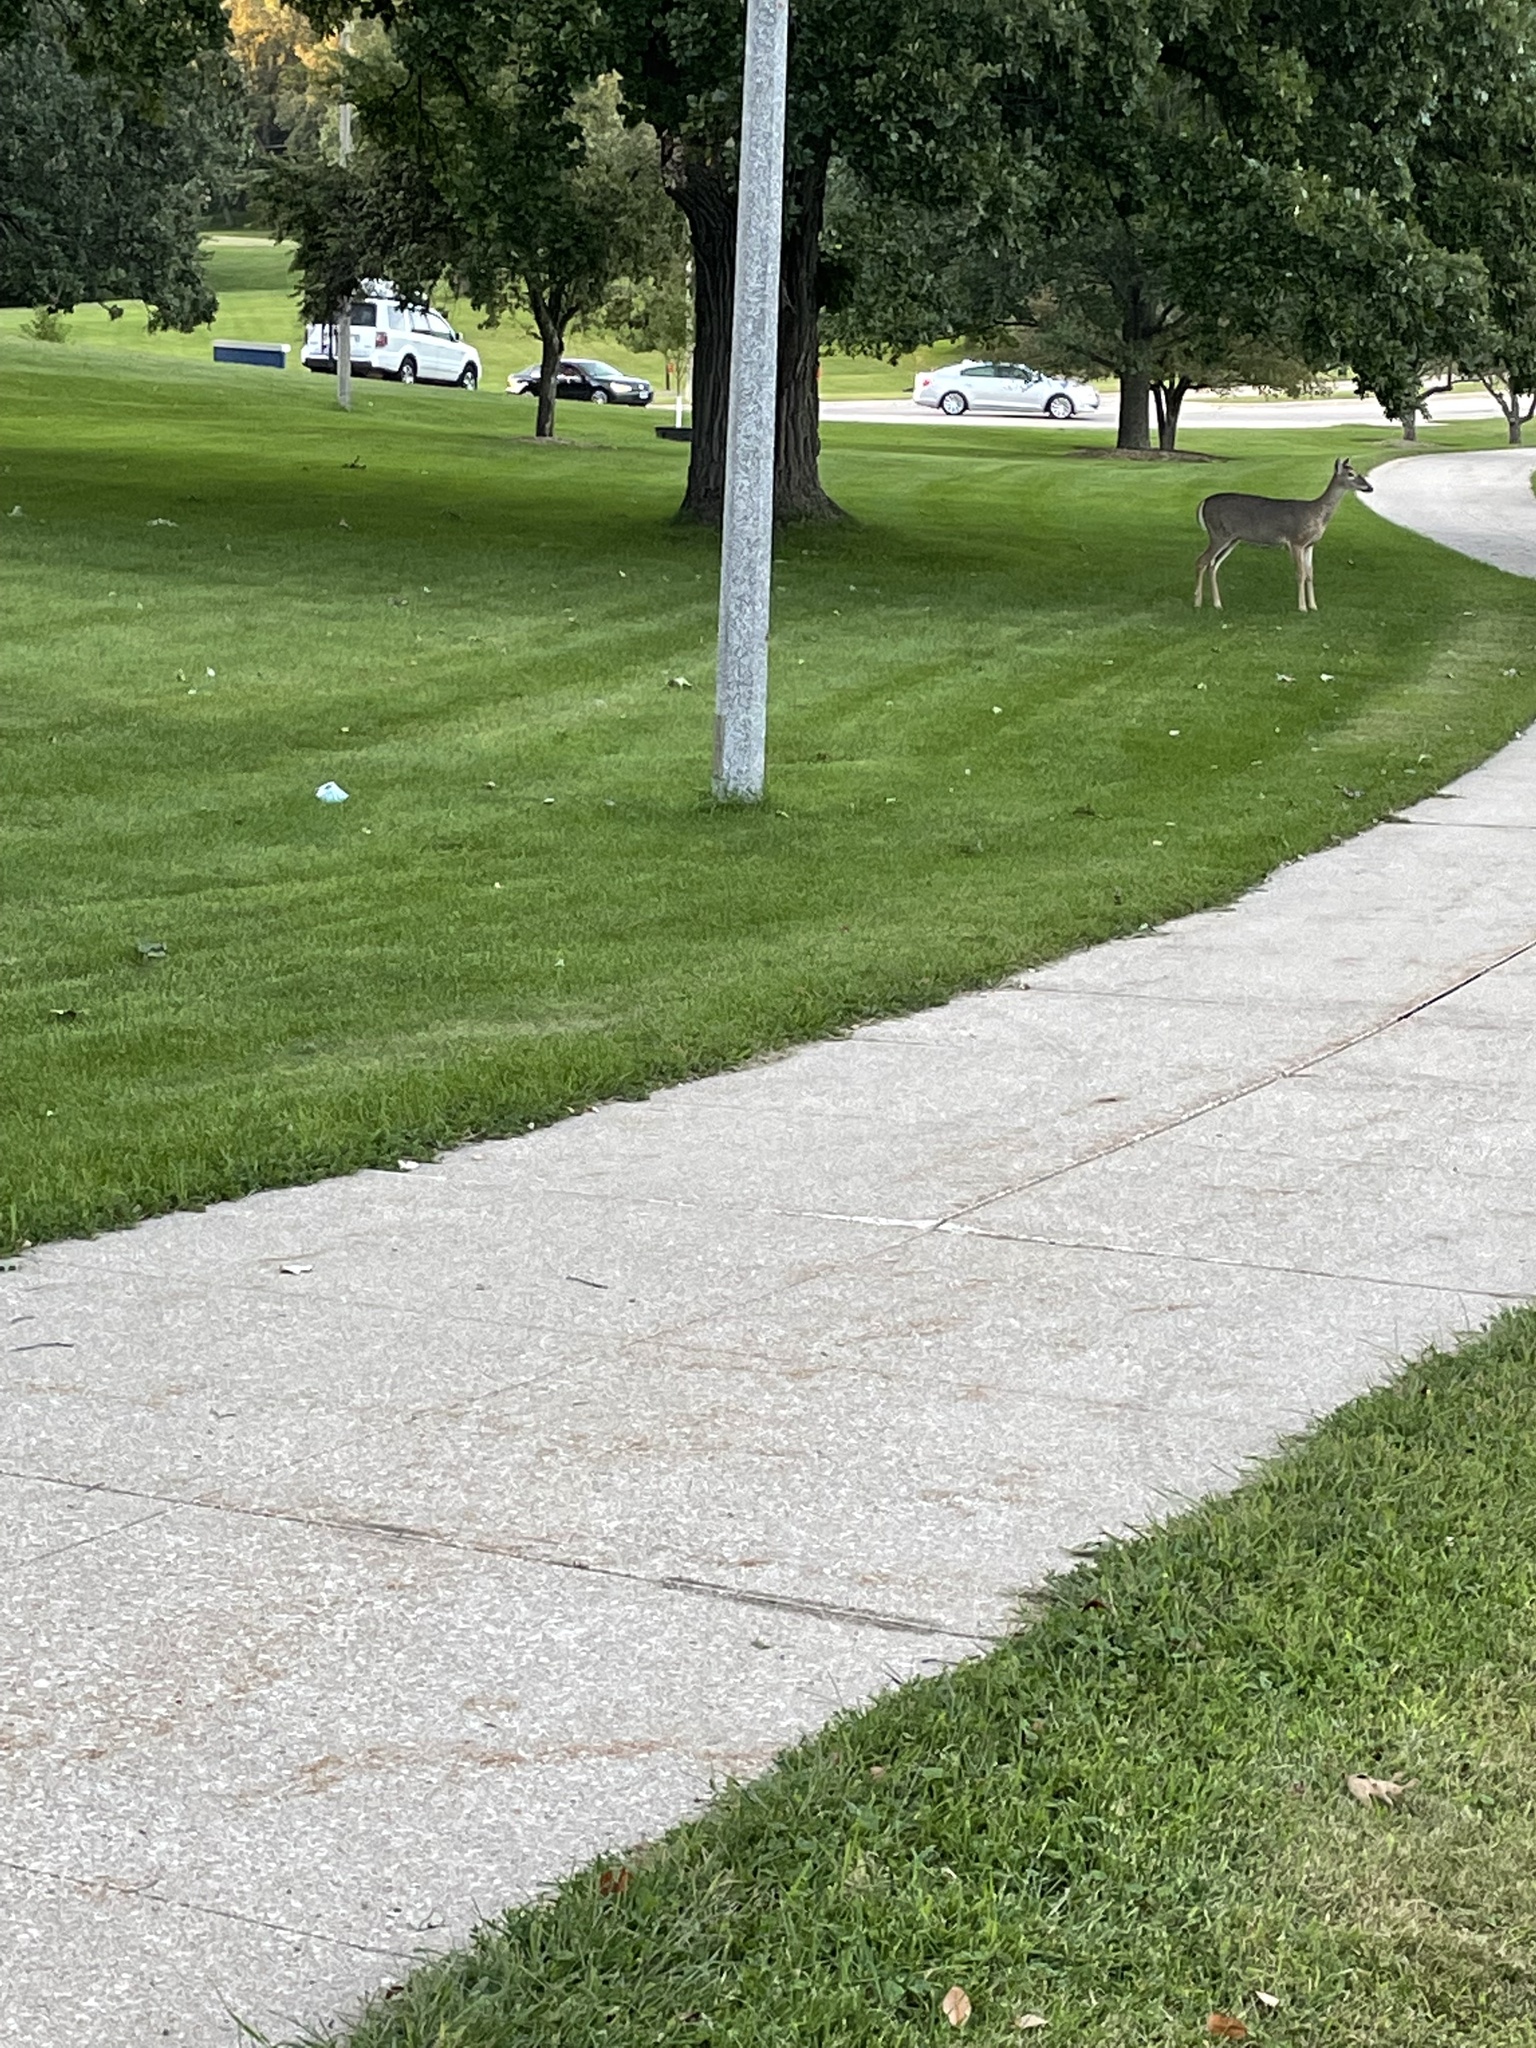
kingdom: Animalia
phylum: Chordata
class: Mammalia
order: Artiodactyla
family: Cervidae
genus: Odocoileus
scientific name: Odocoileus virginianus
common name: White-tailed deer
